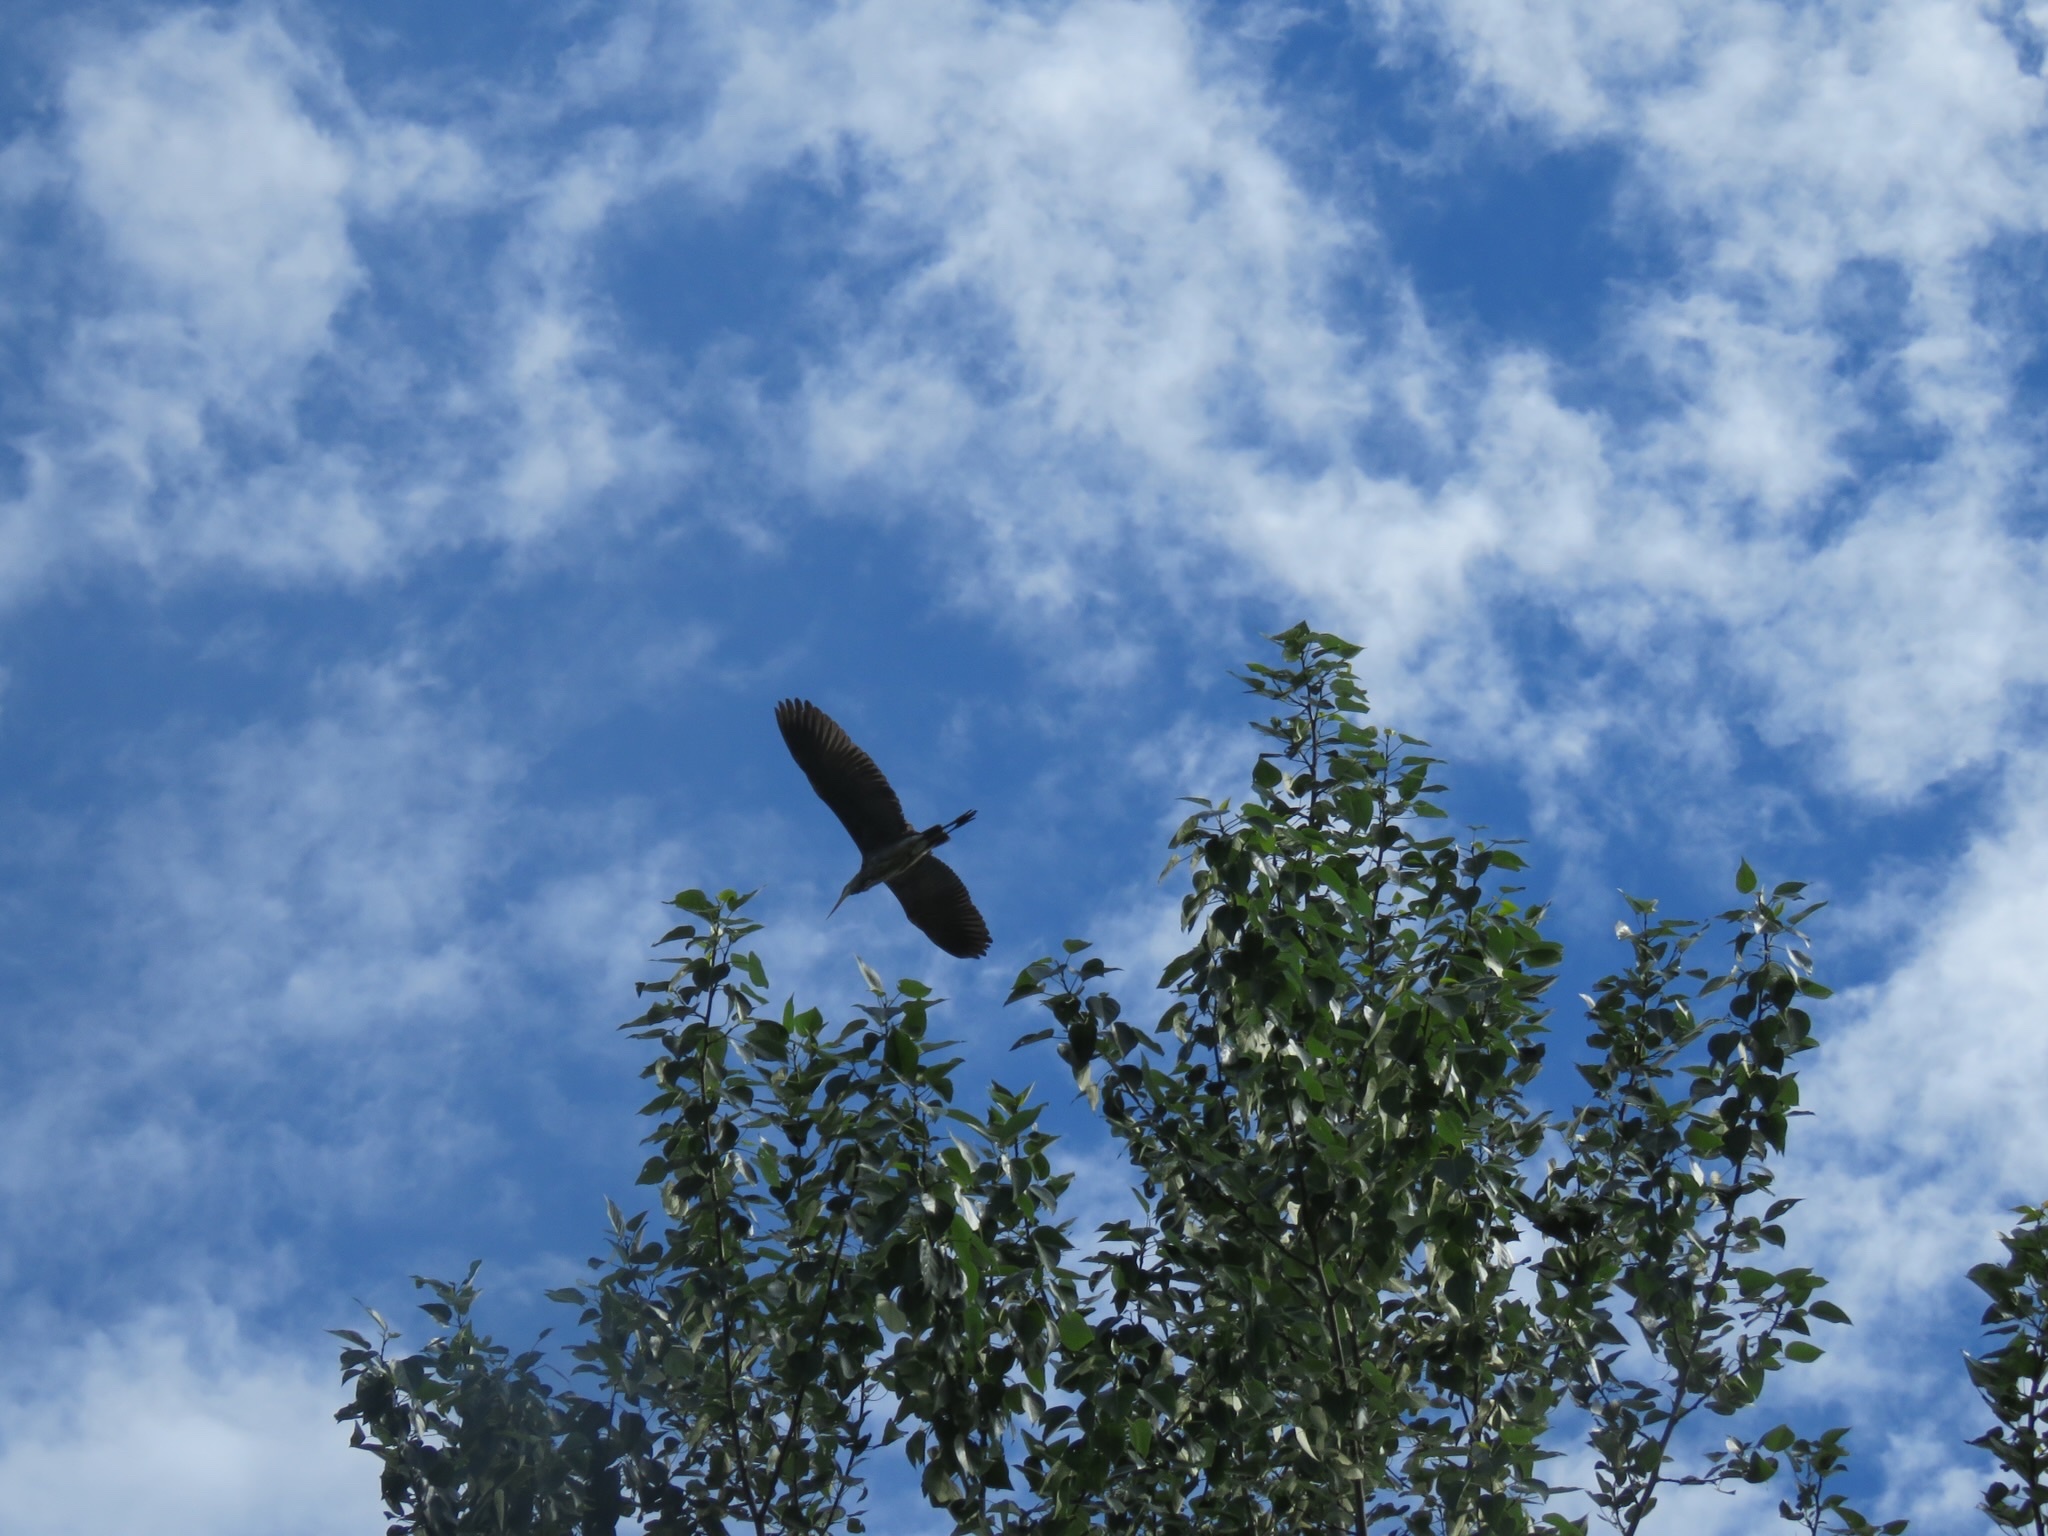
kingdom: Animalia
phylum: Chordata
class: Aves
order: Pelecaniformes
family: Ardeidae
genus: Ardea
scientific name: Ardea herodias
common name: Great blue heron
